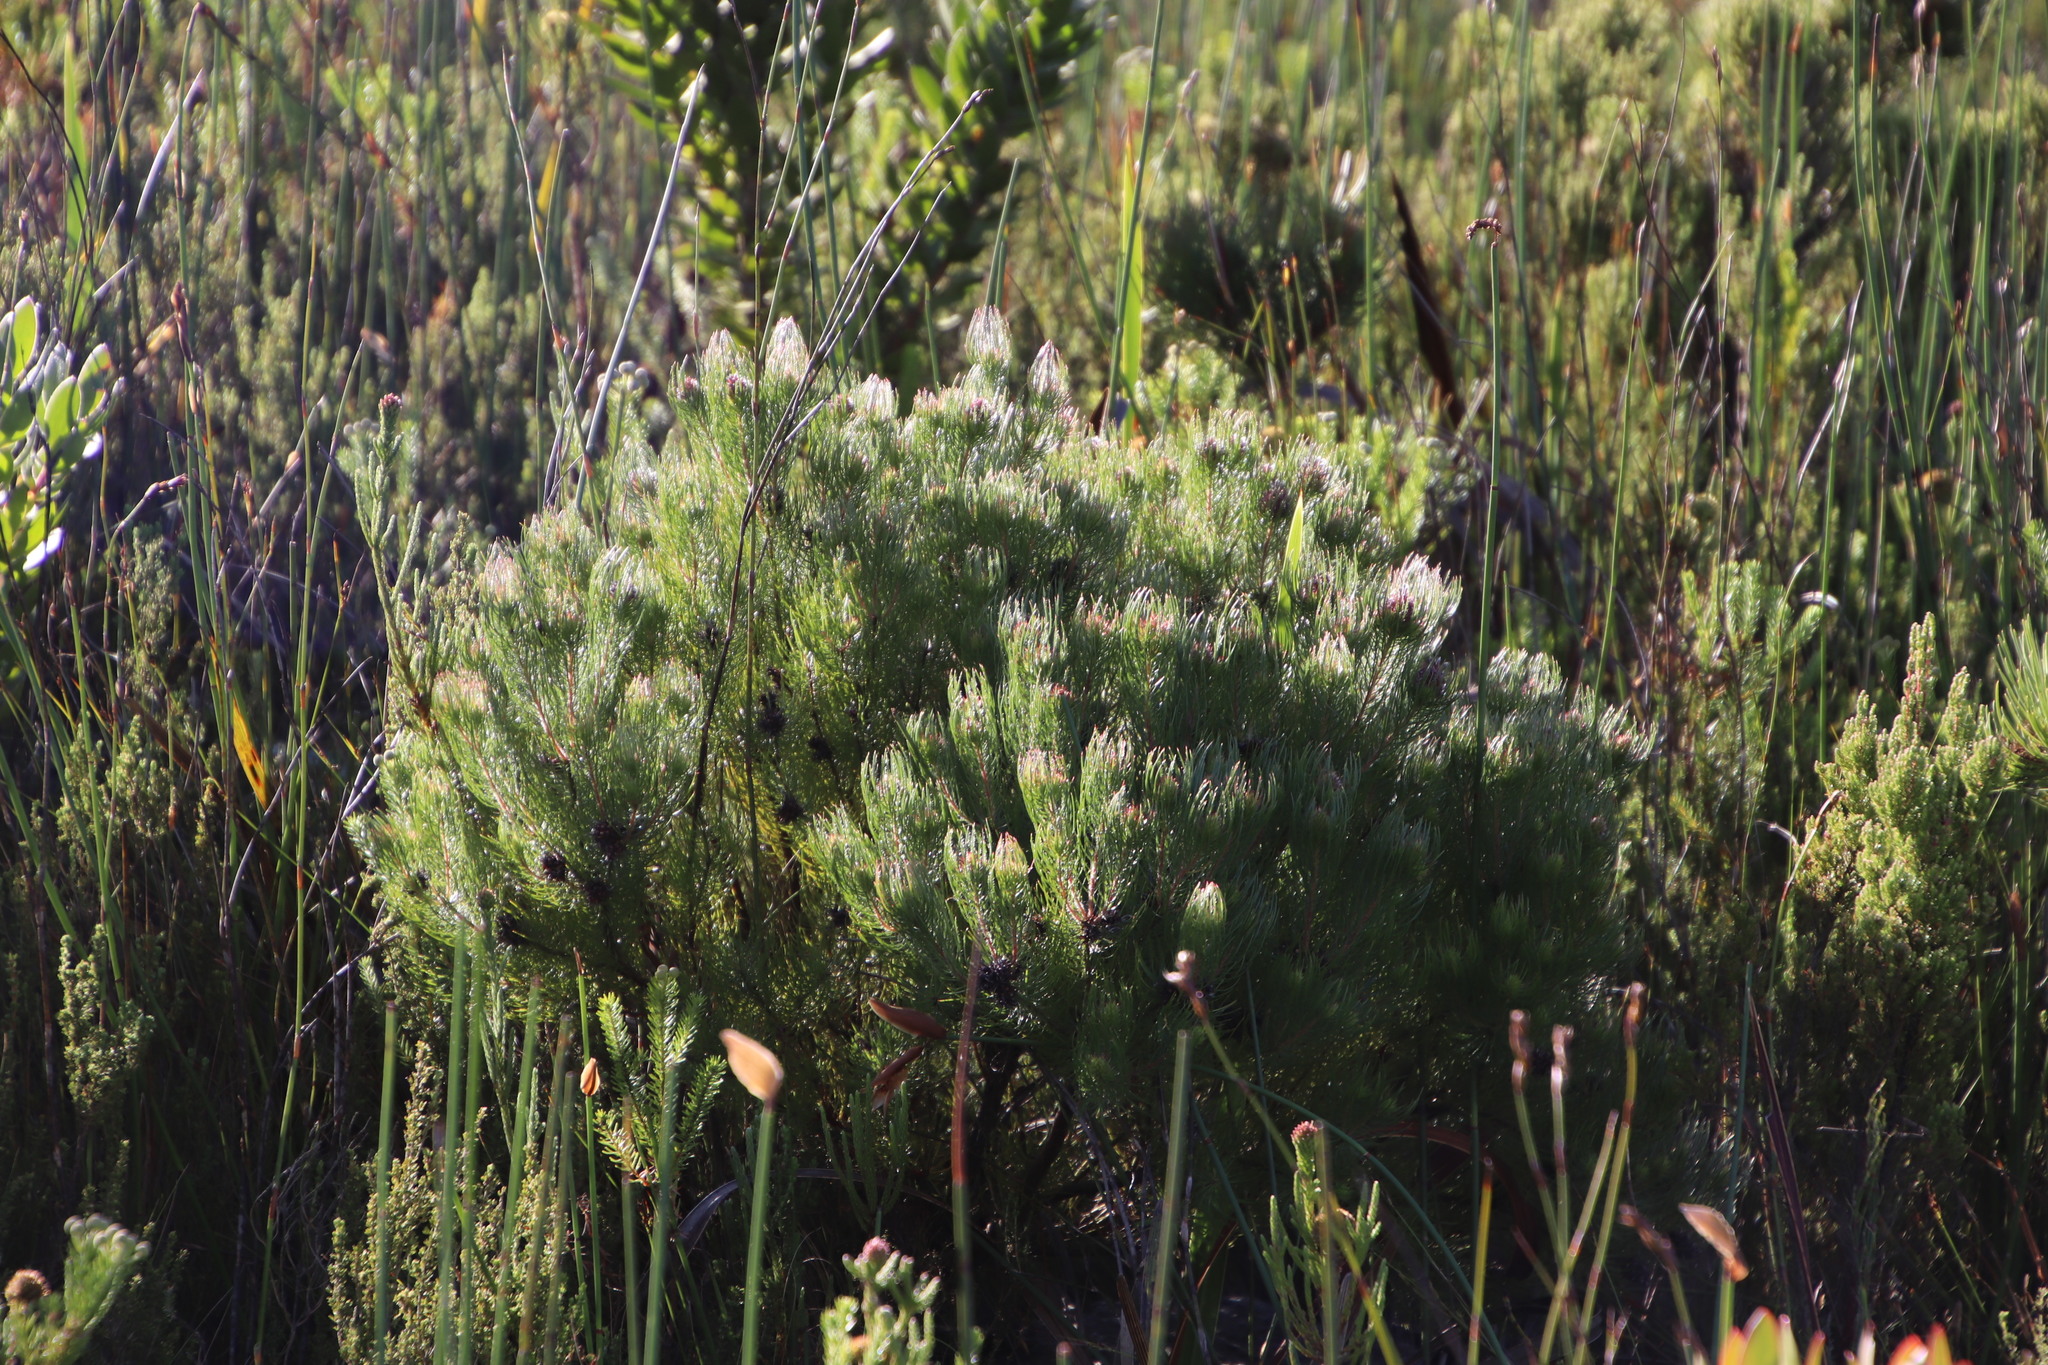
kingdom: Plantae
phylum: Tracheophyta
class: Magnoliopsida
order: Proteales
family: Proteaceae
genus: Spatalla
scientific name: Spatalla setacea
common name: Needle-leaf spoon
